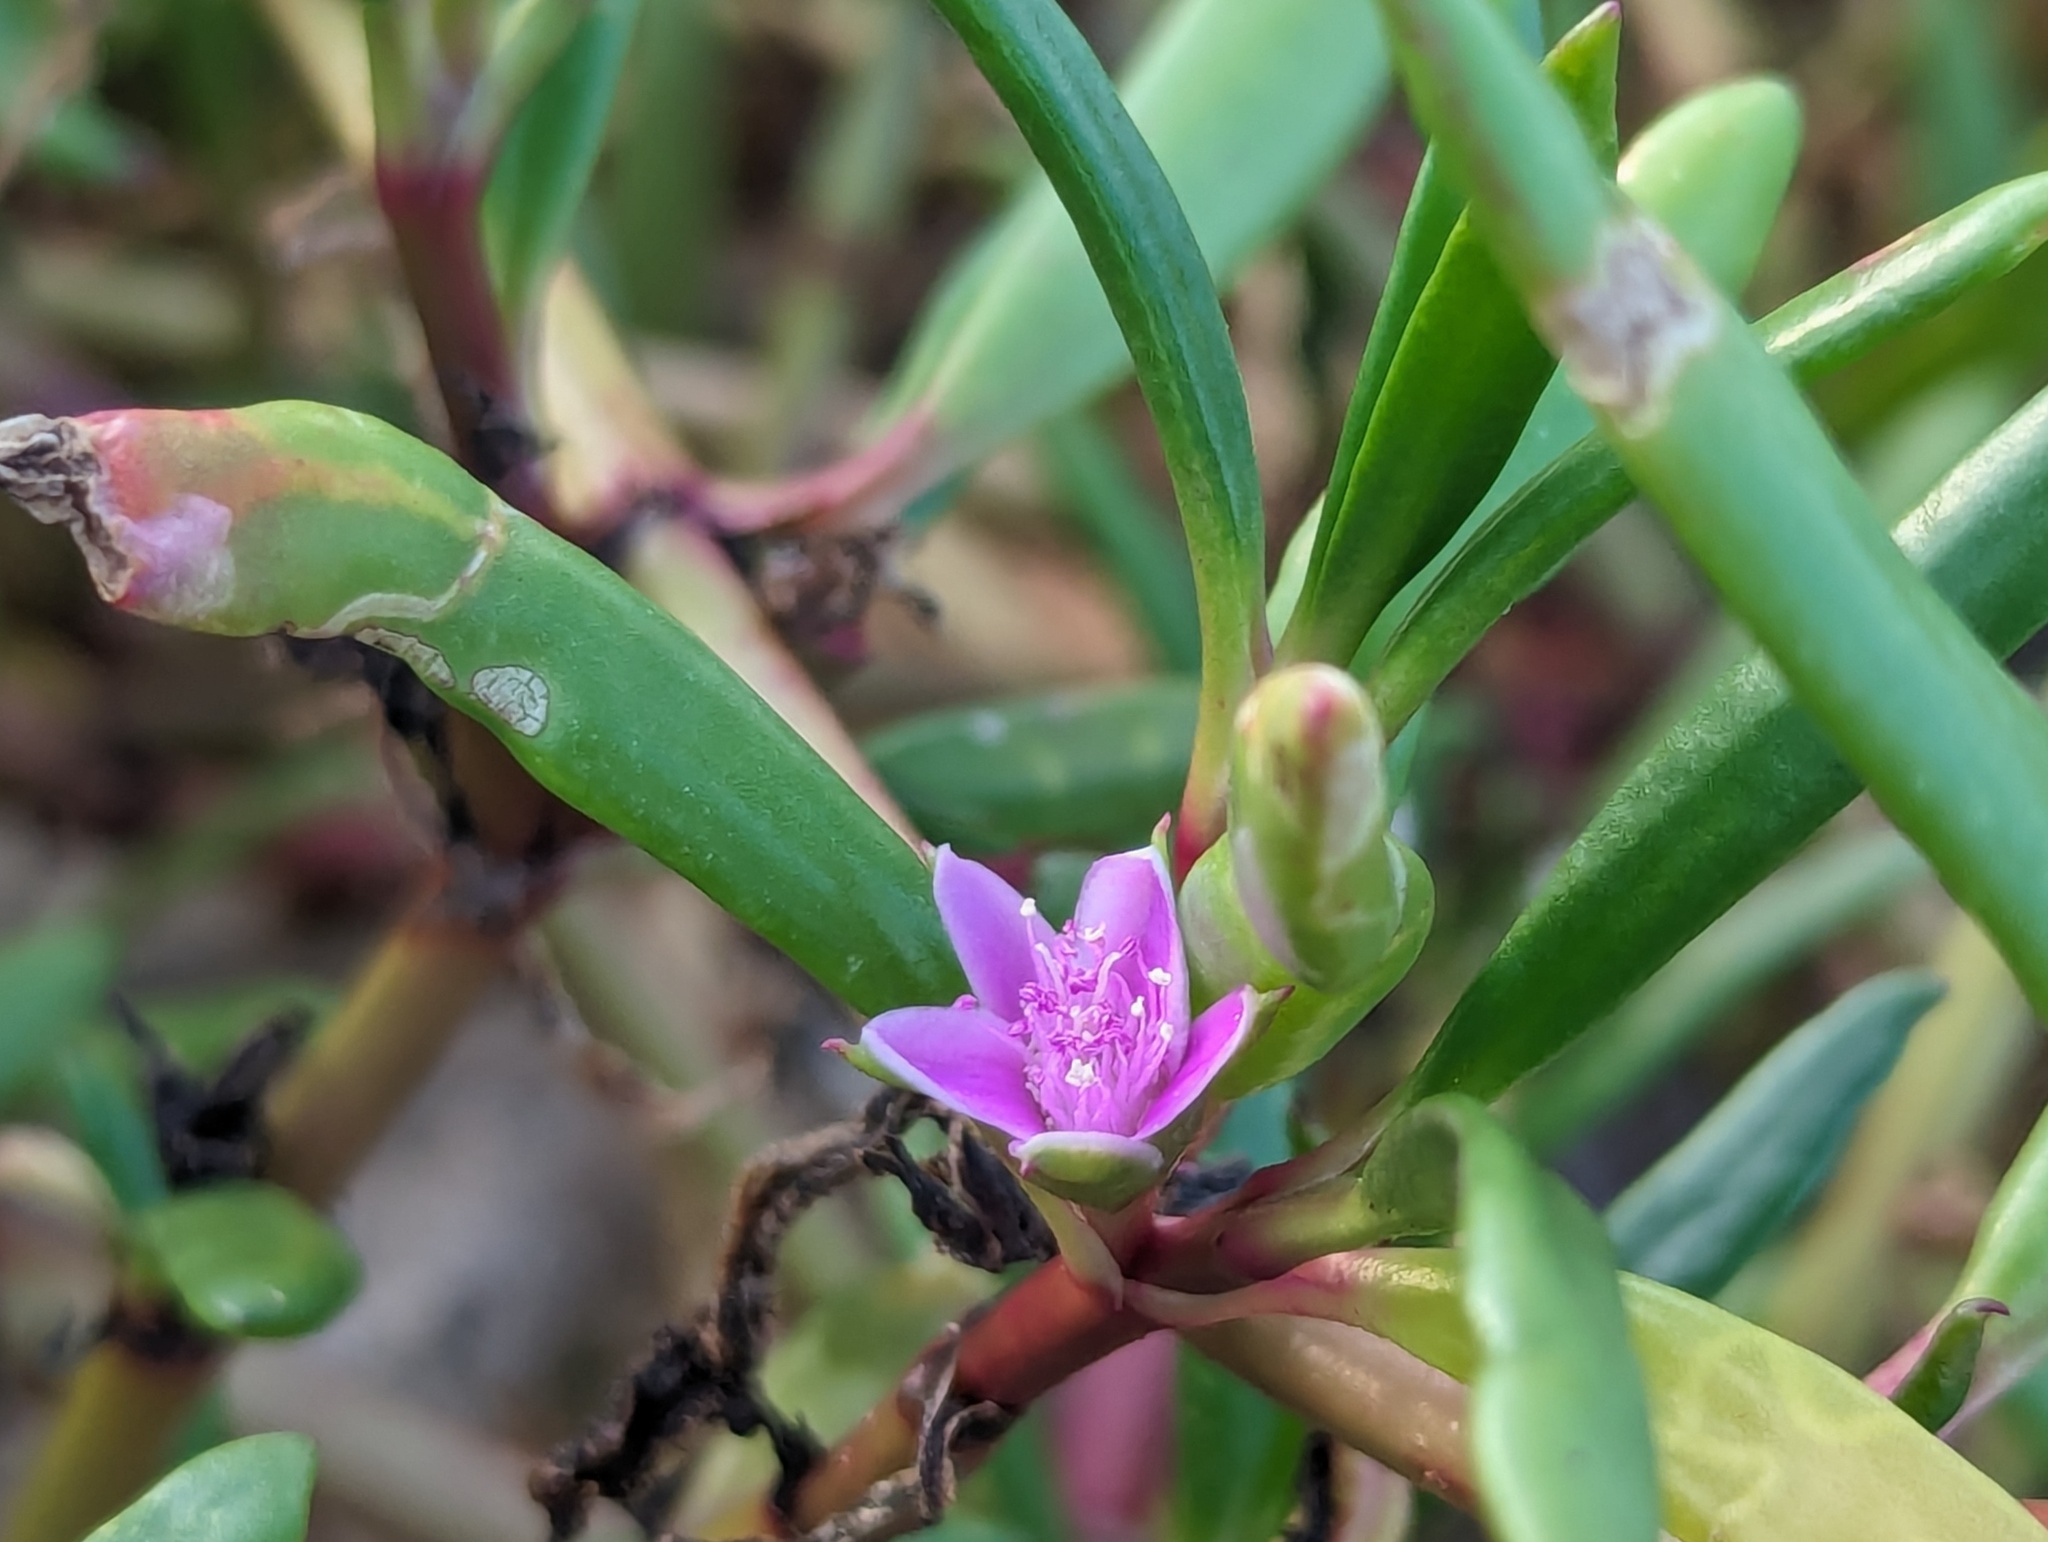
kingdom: Plantae
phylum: Tracheophyta
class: Magnoliopsida
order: Caryophyllales
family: Aizoaceae
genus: Sesuvium
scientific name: Sesuvium portulacastrum
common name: Sea-purslane
